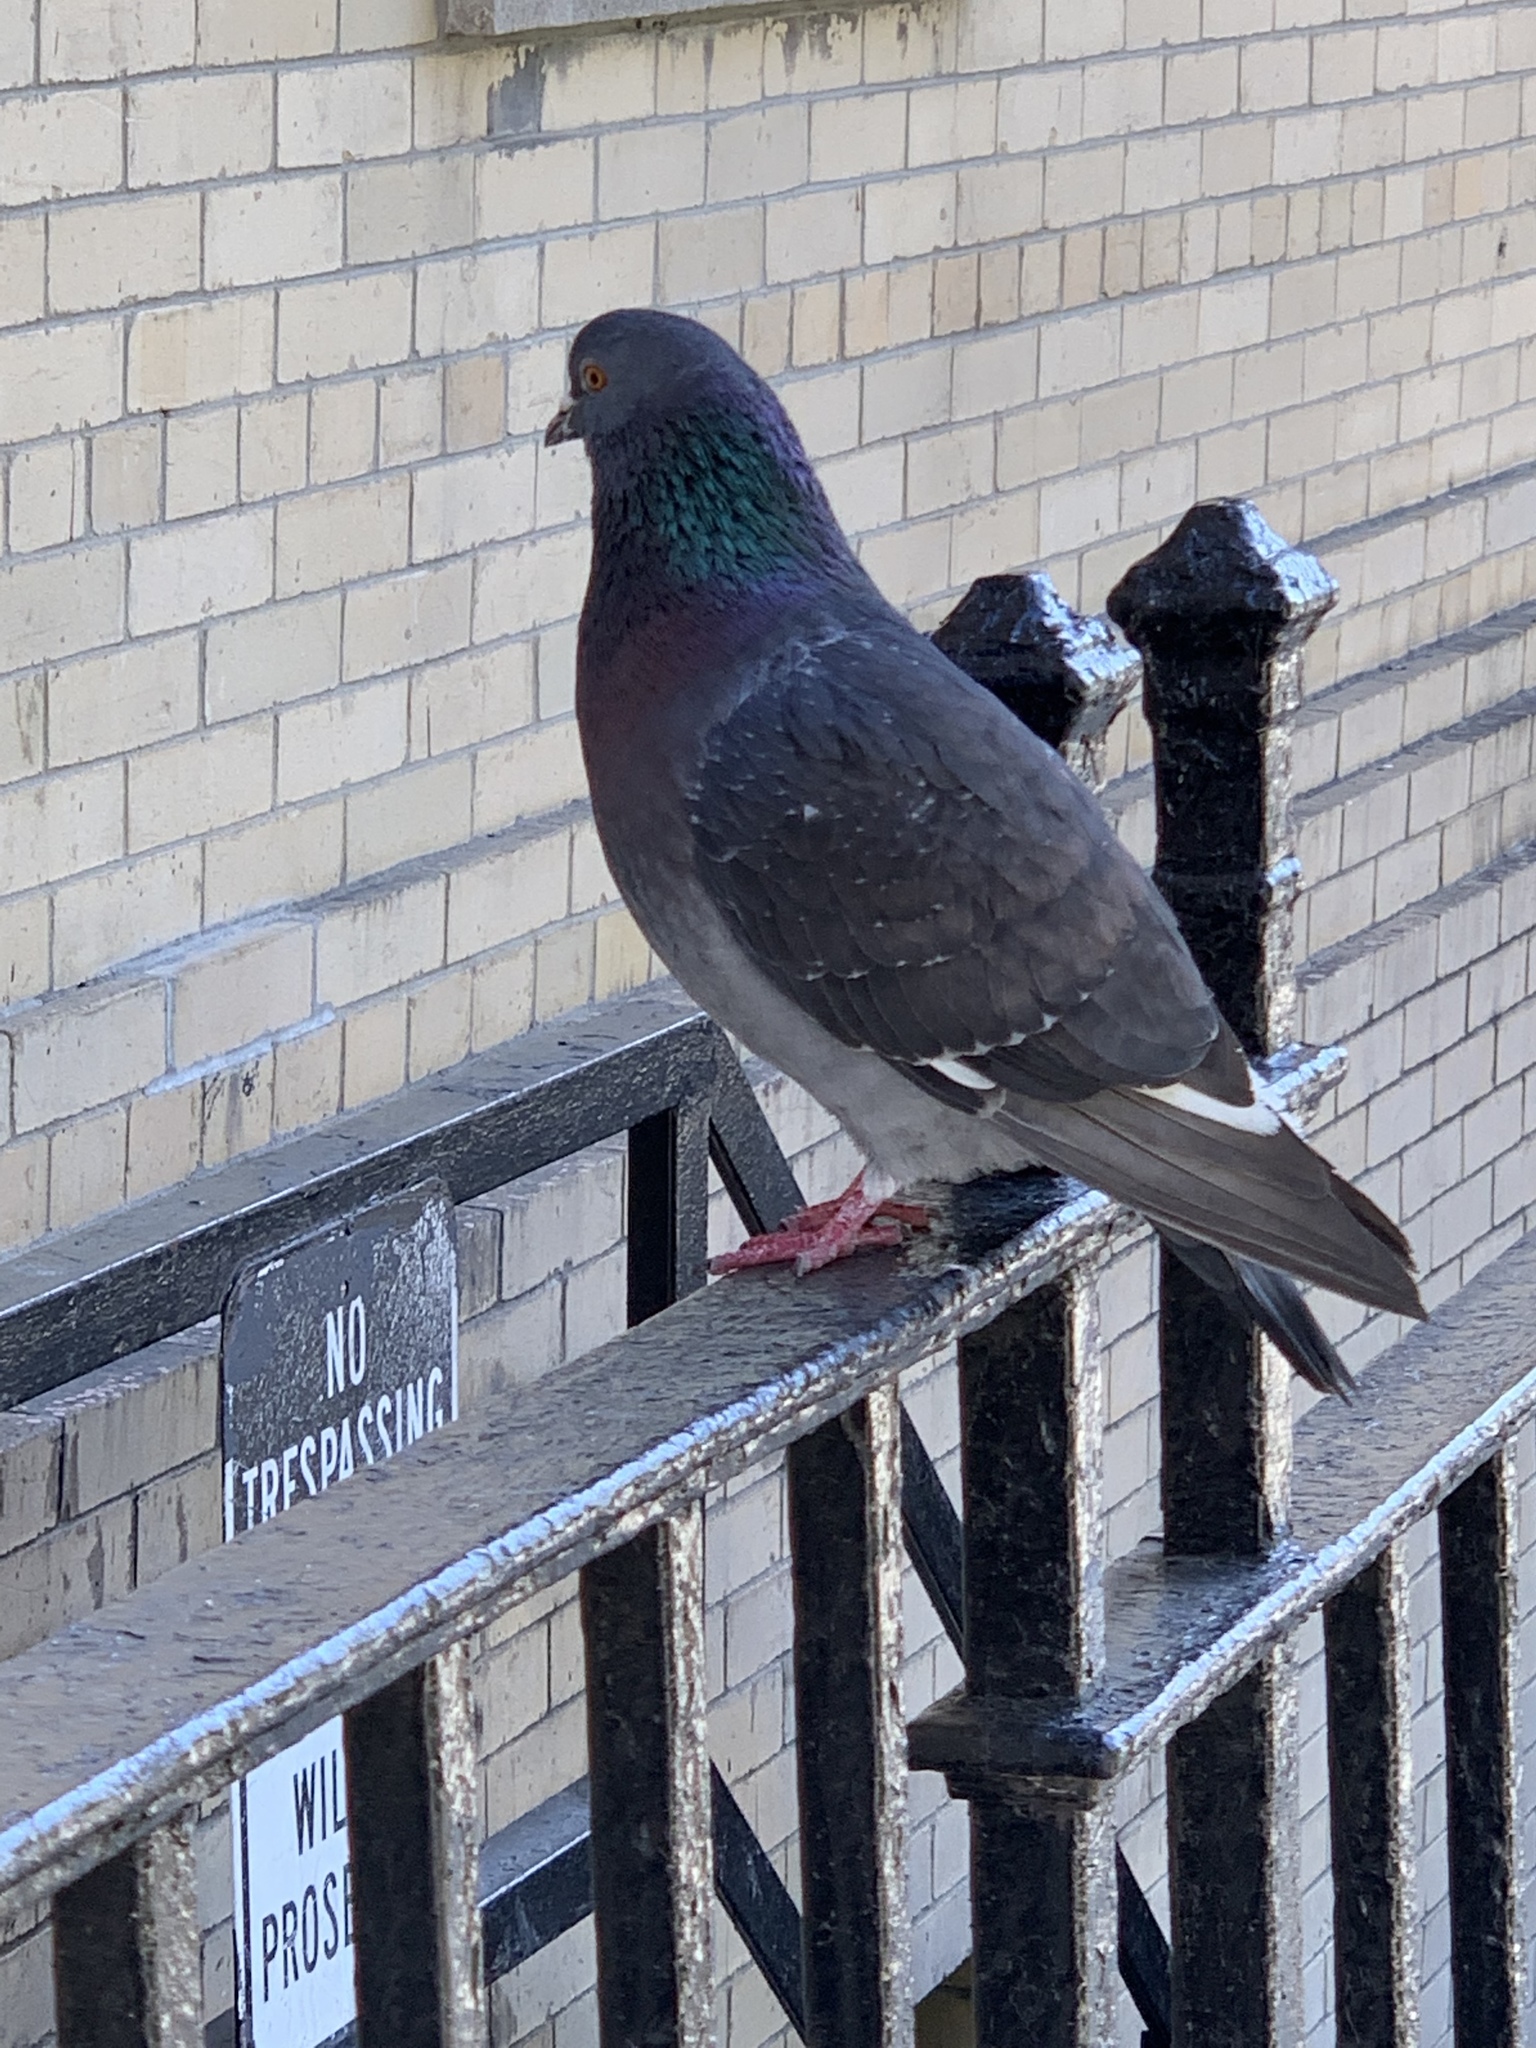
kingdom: Animalia
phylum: Chordata
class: Aves
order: Columbiformes
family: Columbidae
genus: Columba
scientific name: Columba livia
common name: Rock pigeon
